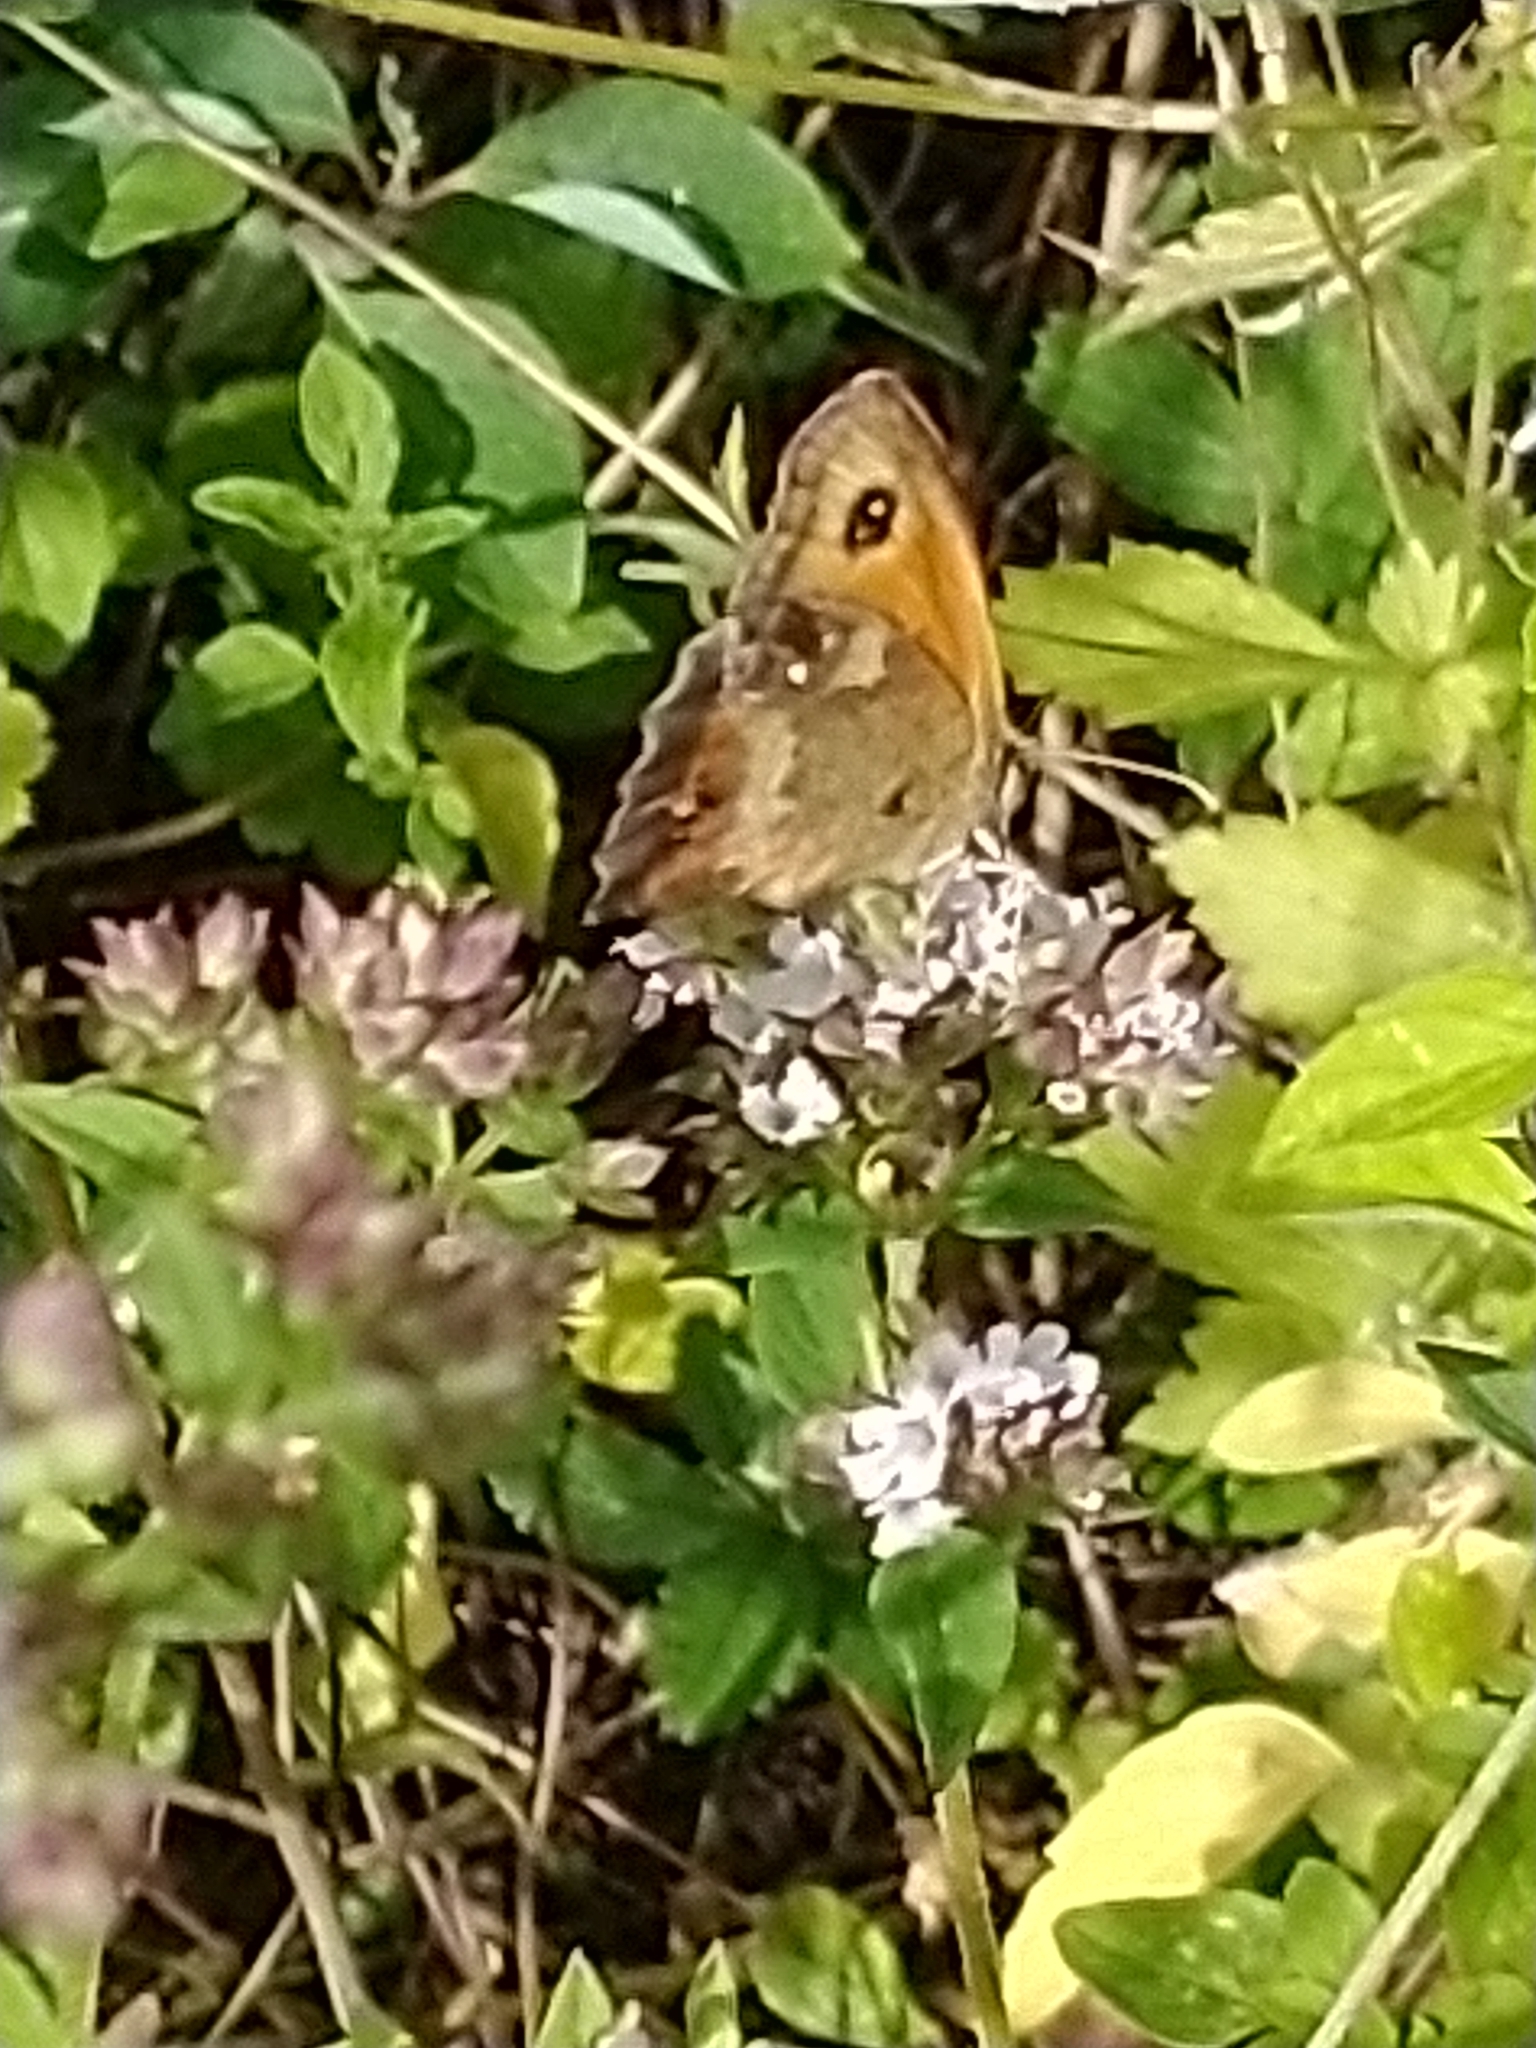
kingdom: Animalia
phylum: Arthropoda
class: Insecta
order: Lepidoptera
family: Nymphalidae
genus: Pyronia
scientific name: Pyronia tithonus
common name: Gatekeeper
